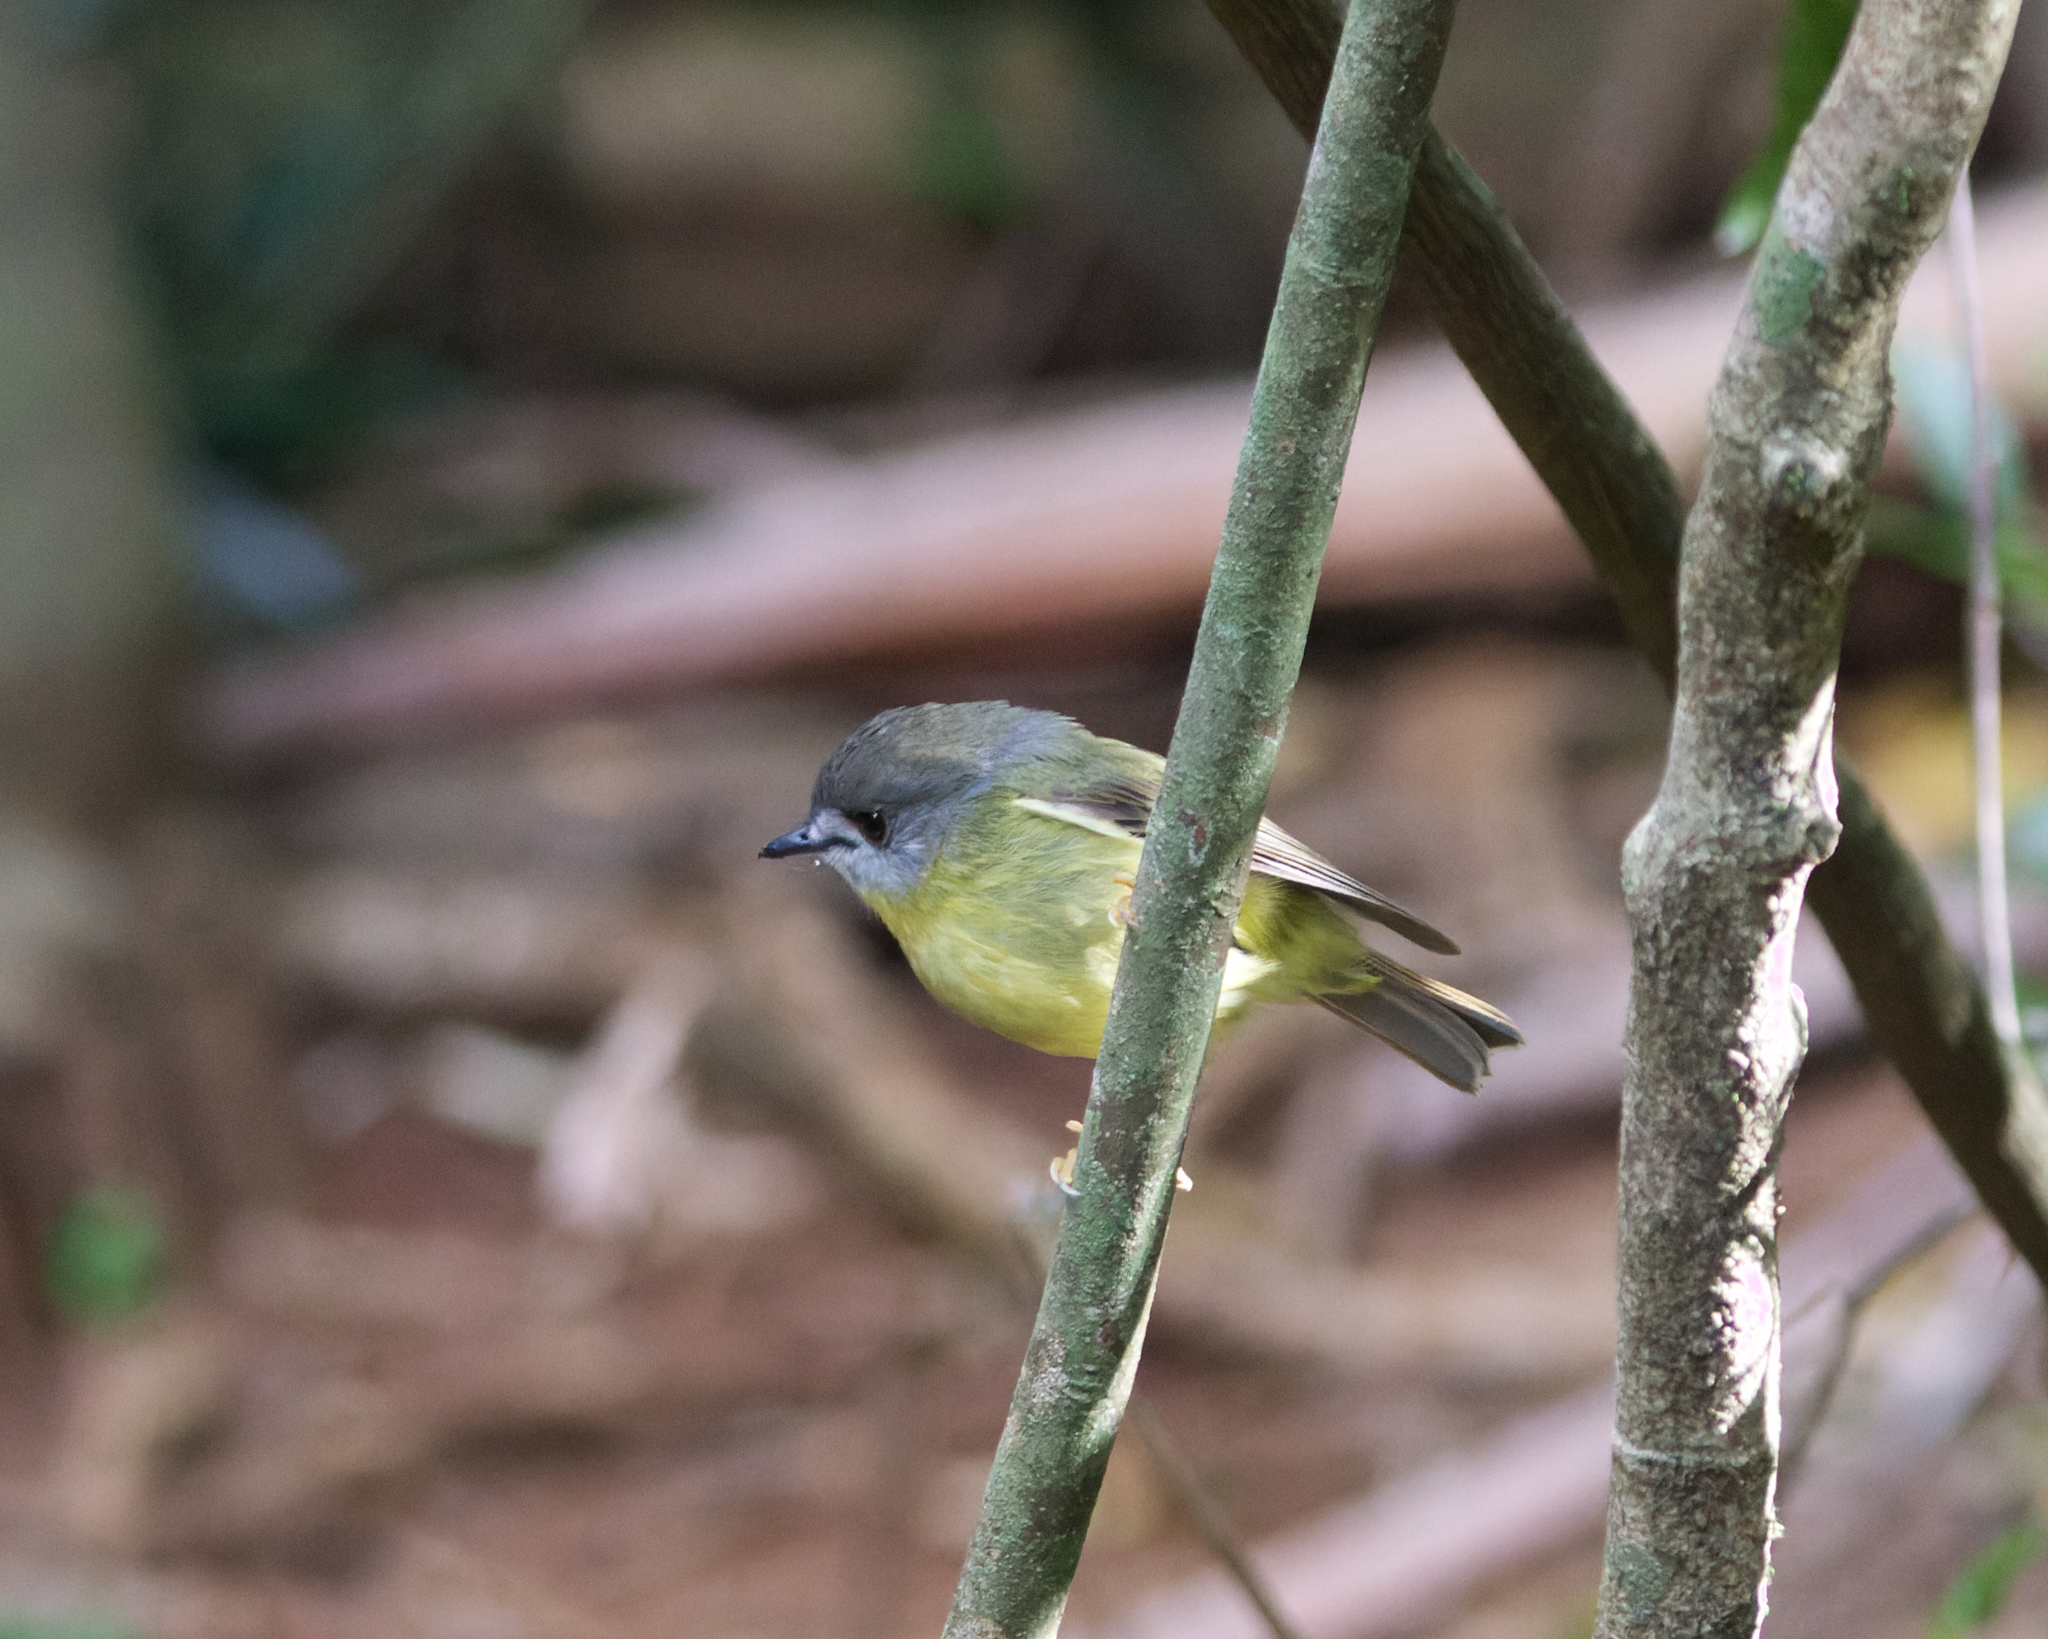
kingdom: Animalia
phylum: Chordata
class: Aves
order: Passeriformes
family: Petroicidae
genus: Eopsaltria
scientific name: Eopsaltria
